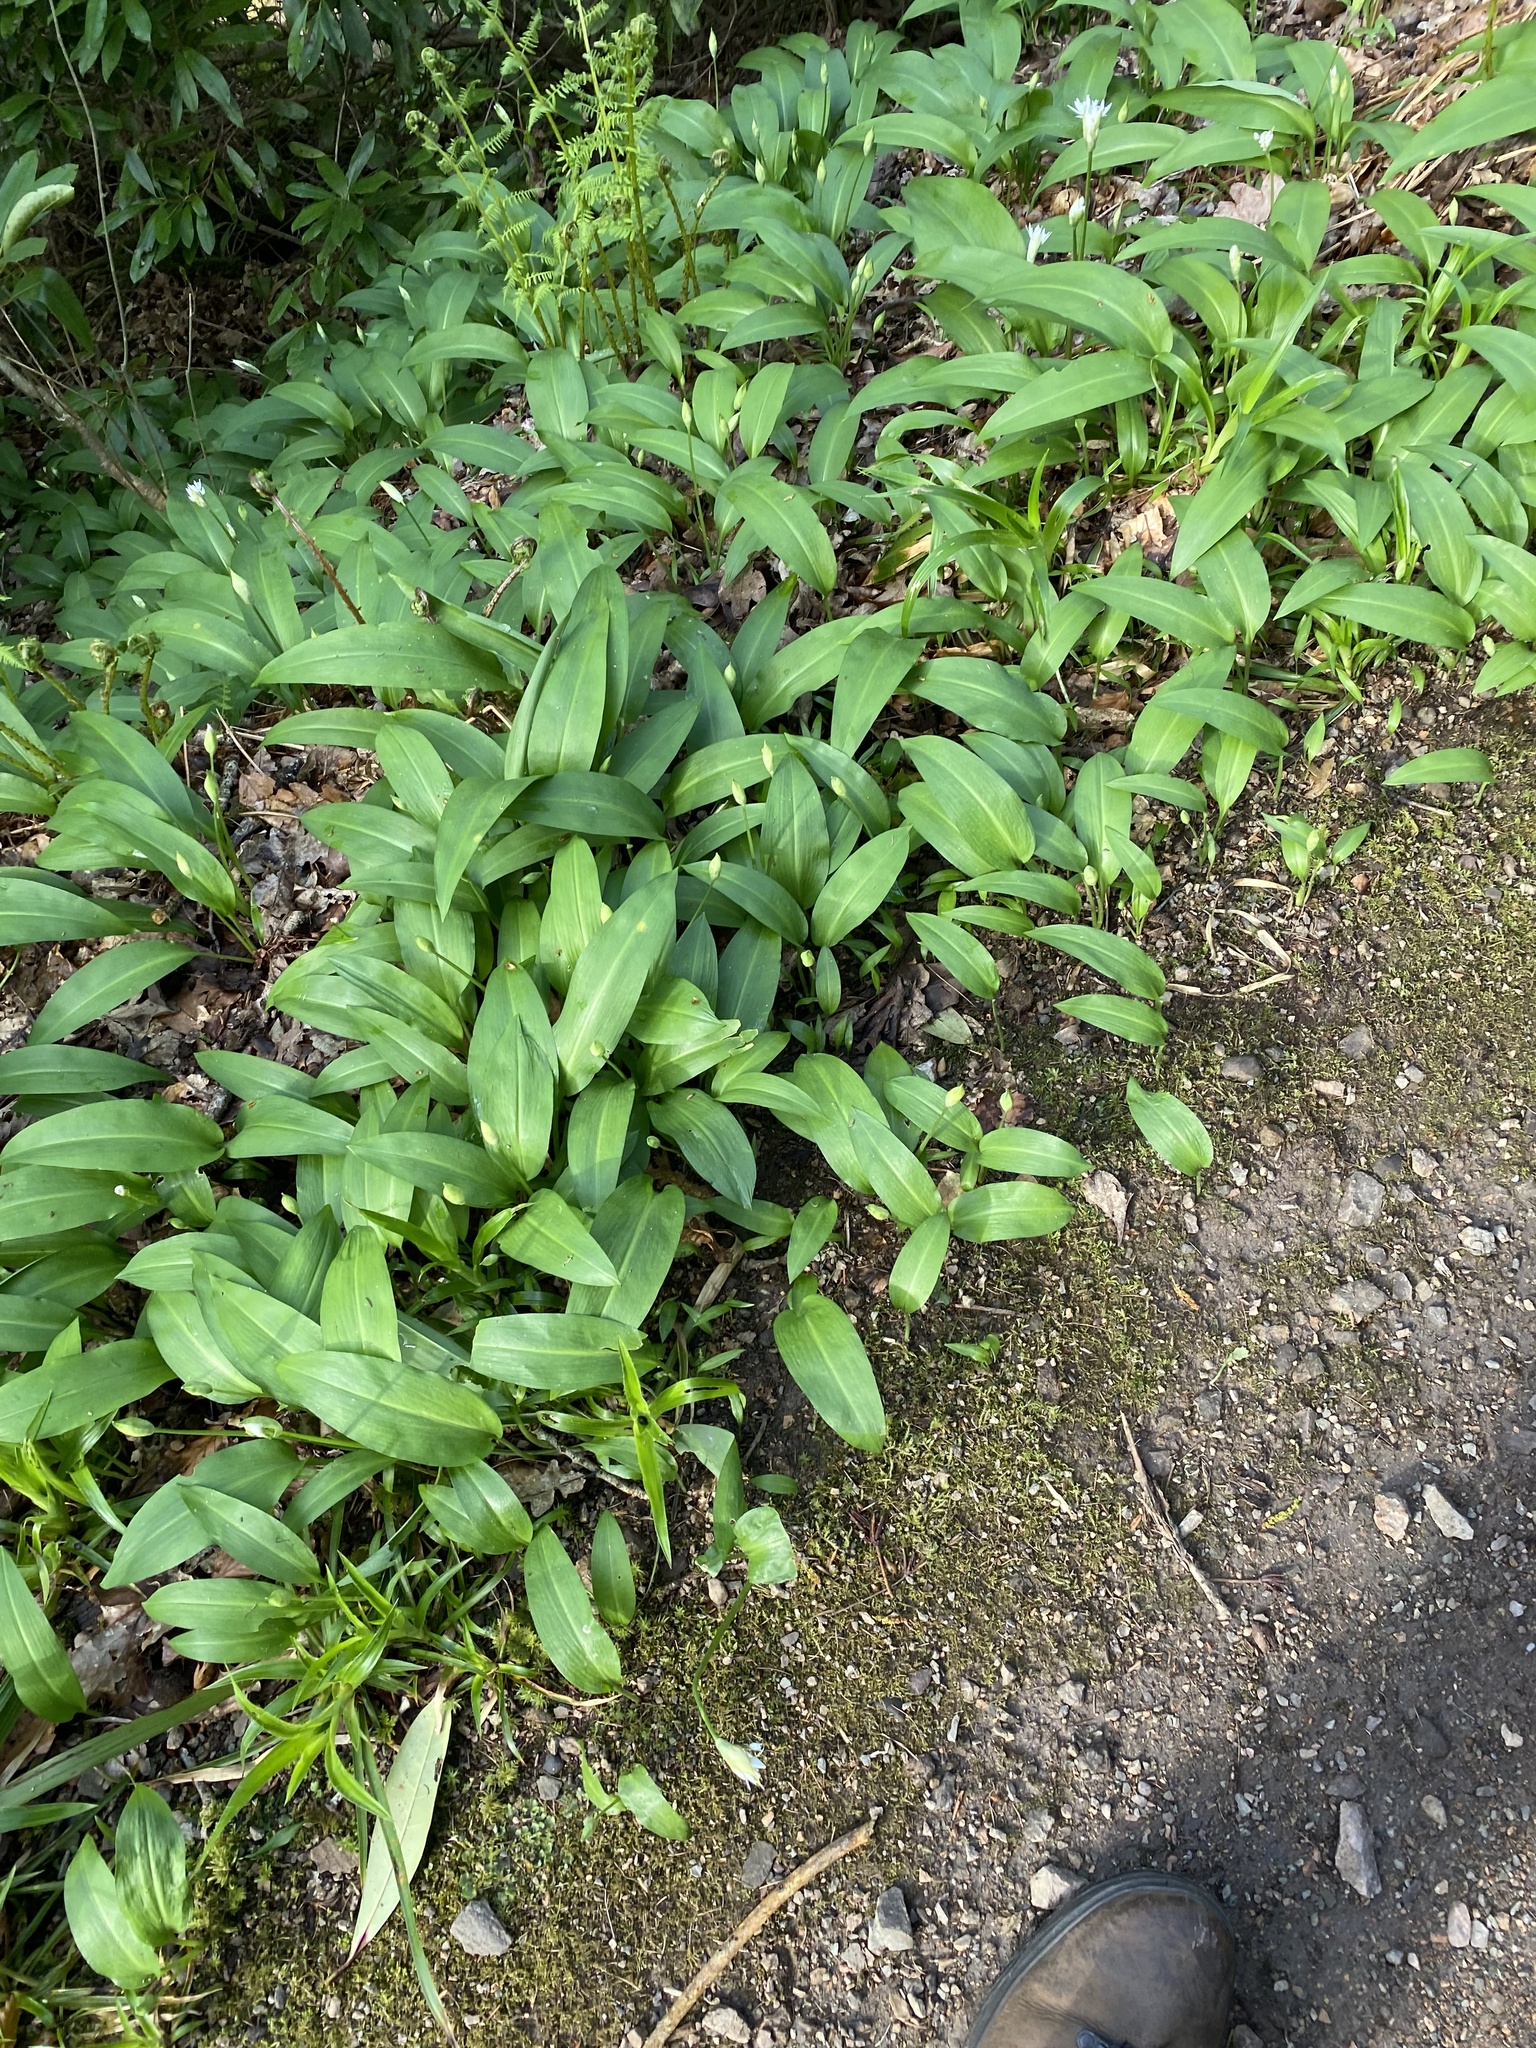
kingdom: Plantae
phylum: Tracheophyta
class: Liliopsida
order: Asparagales
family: Amaryllidaceae
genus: Allium
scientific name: Allium ursinum
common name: Ramsons
